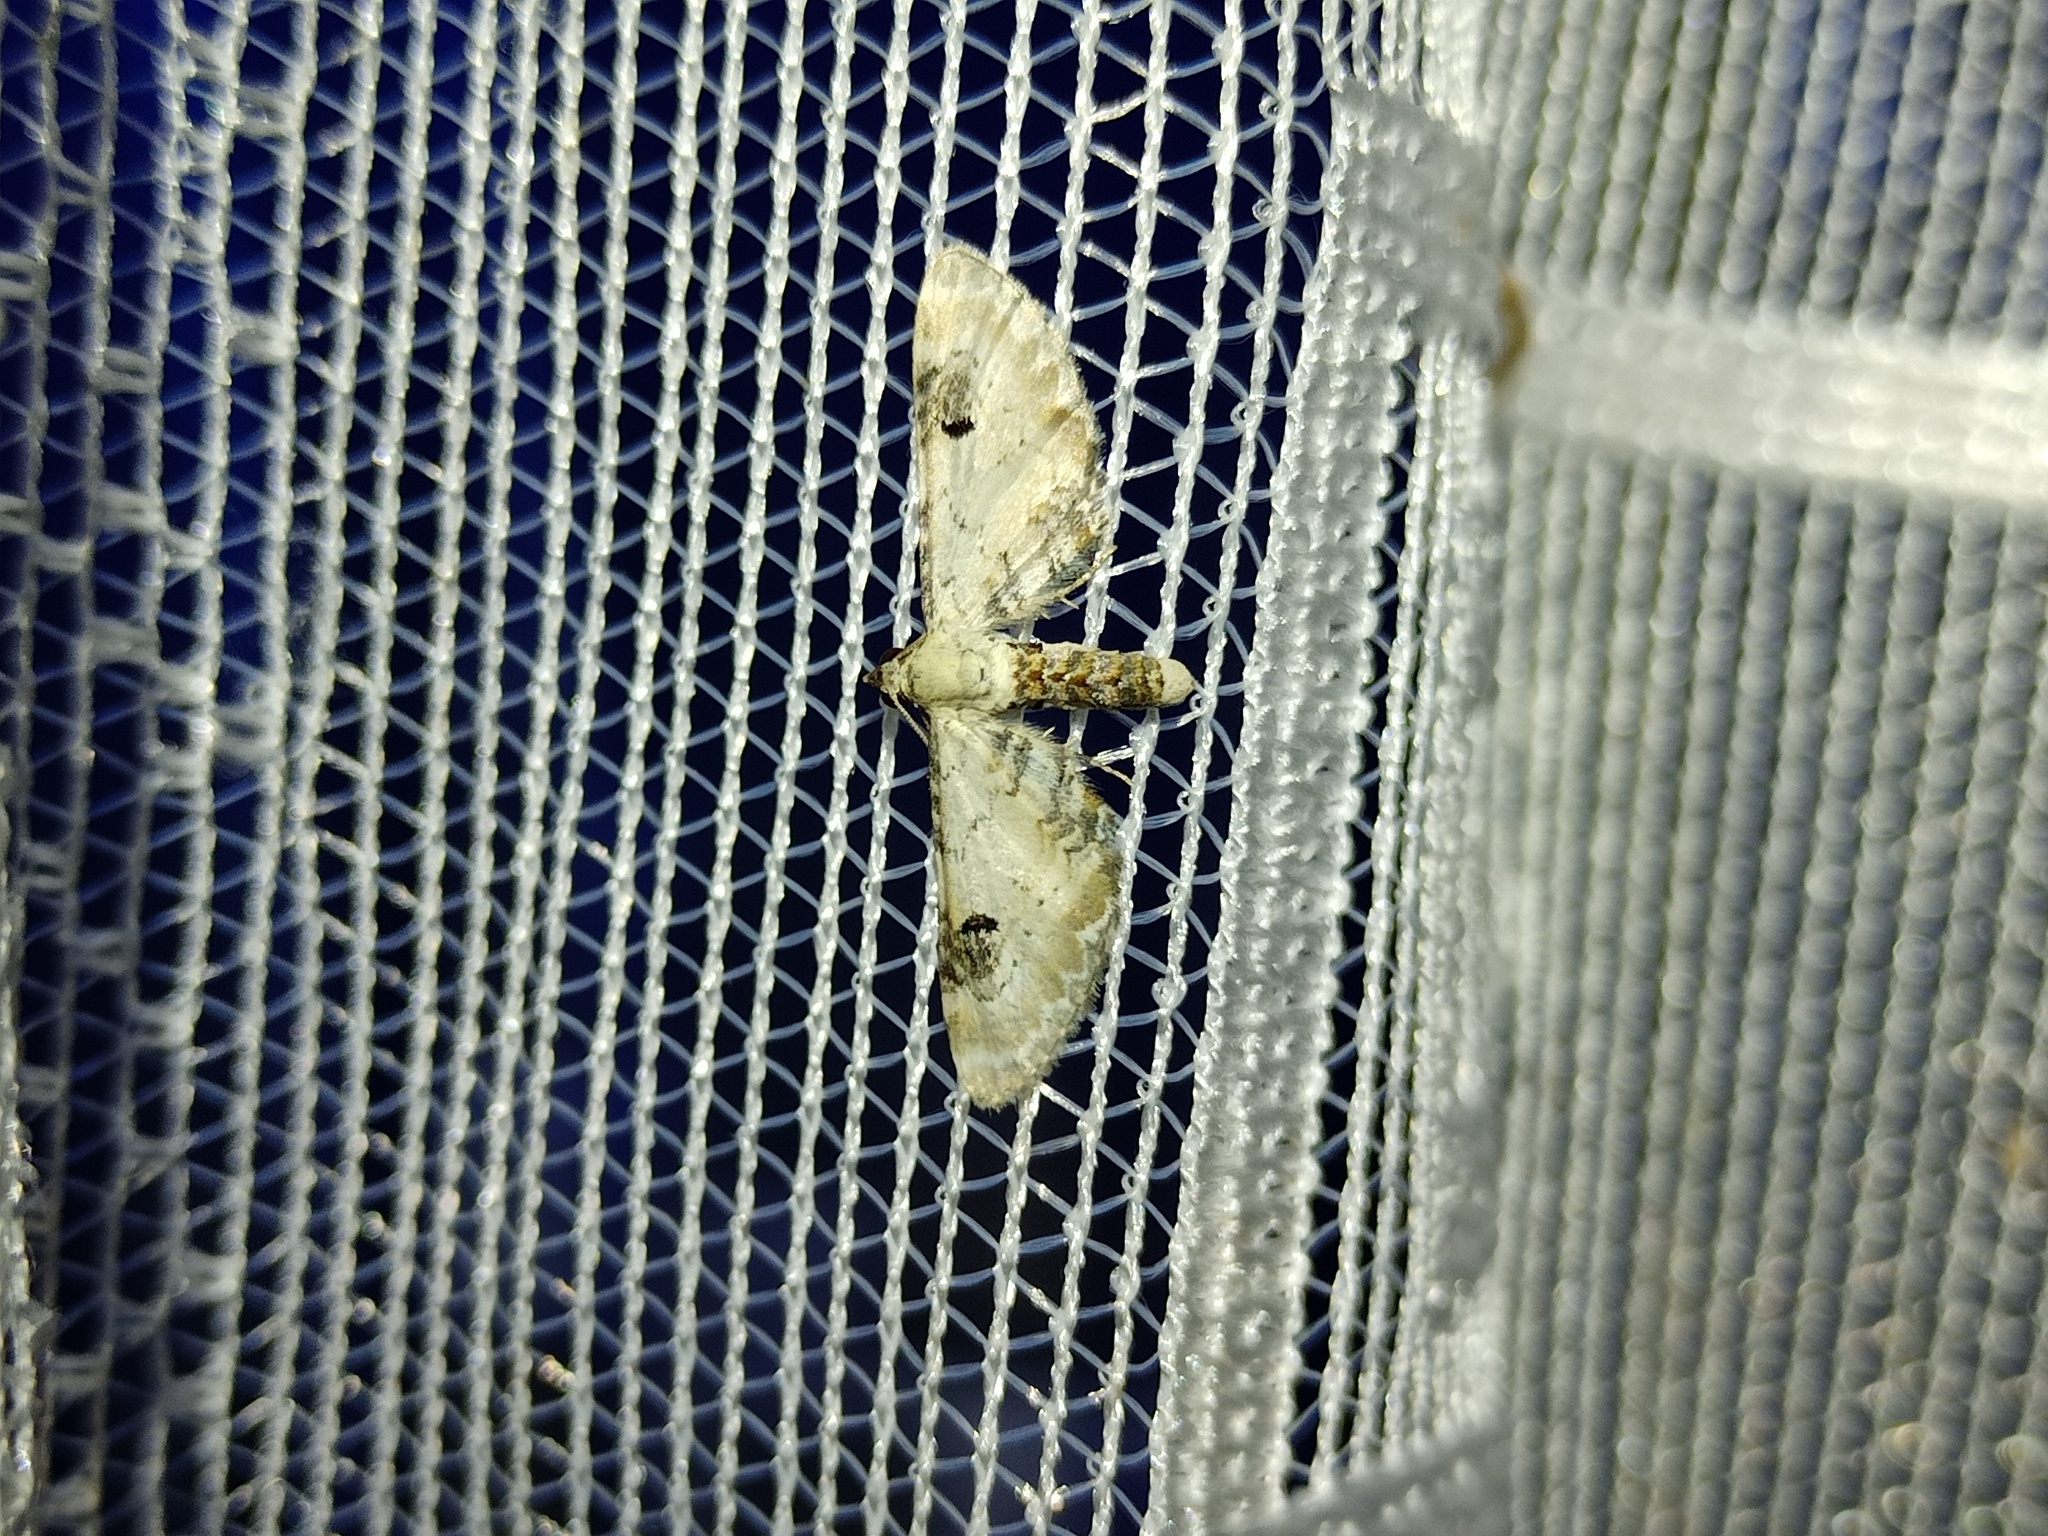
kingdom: Animalia
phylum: Arthropoda
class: Insecta
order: Lepidoptera
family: Geometridae
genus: Eupithecia
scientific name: Eupithecia centaureata
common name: Lime-speck pug
